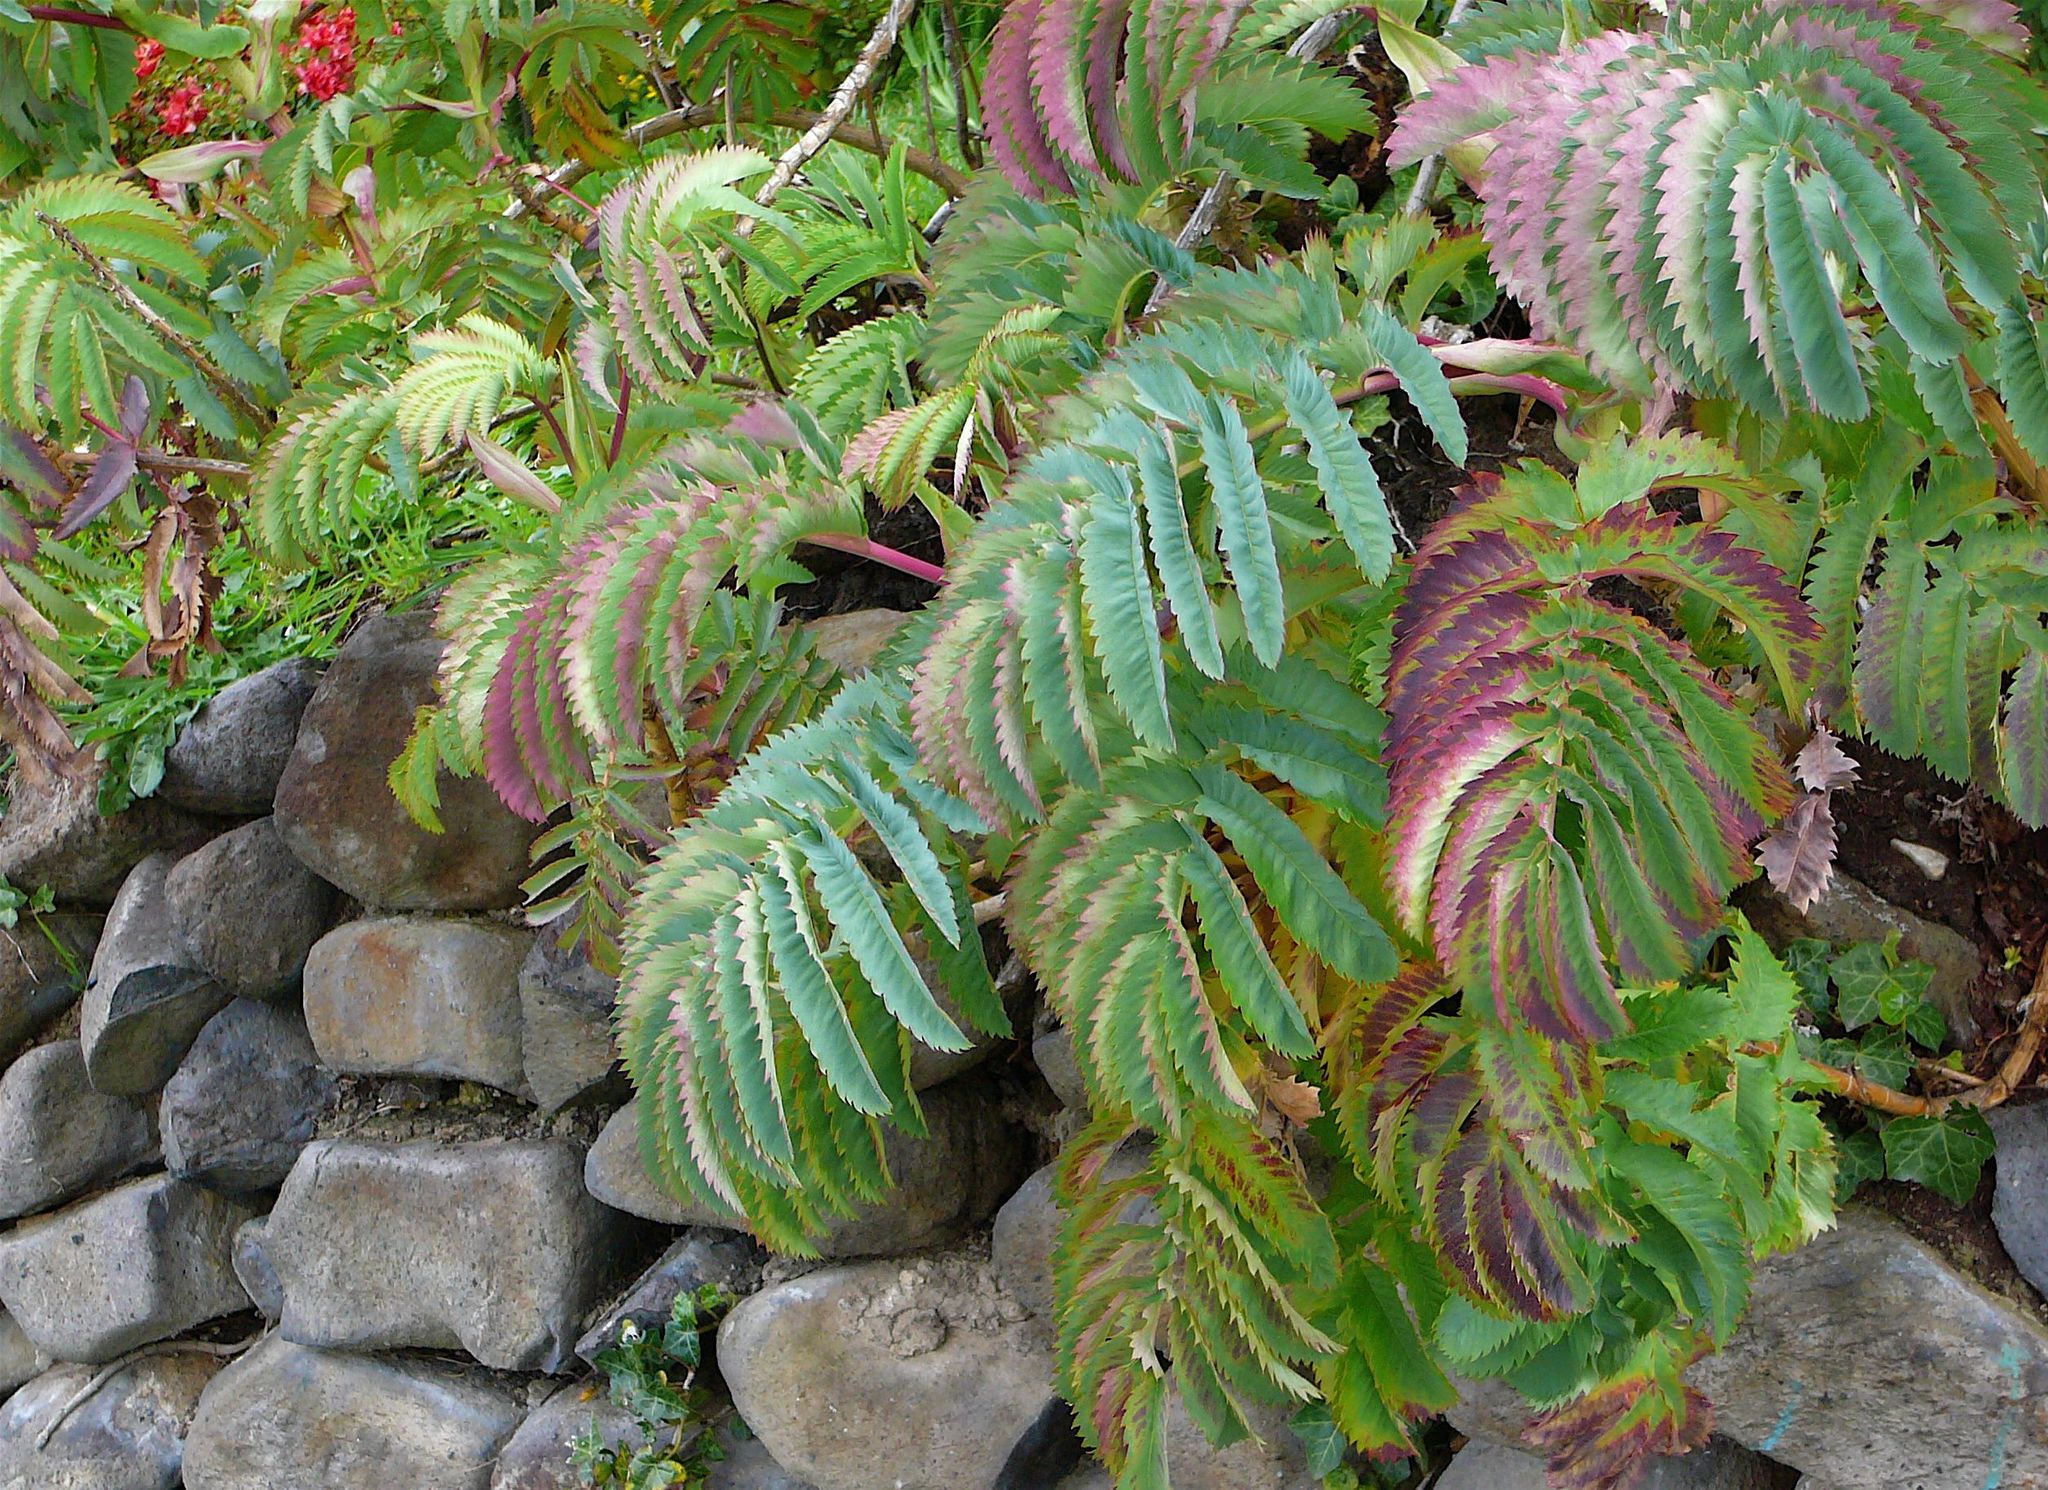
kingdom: Plantae
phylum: Tracheophyta
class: Magnoliopsida
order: Geraniales
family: Melianthaceae
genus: Melianthus
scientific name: Melianthus major
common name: Honey-flower
